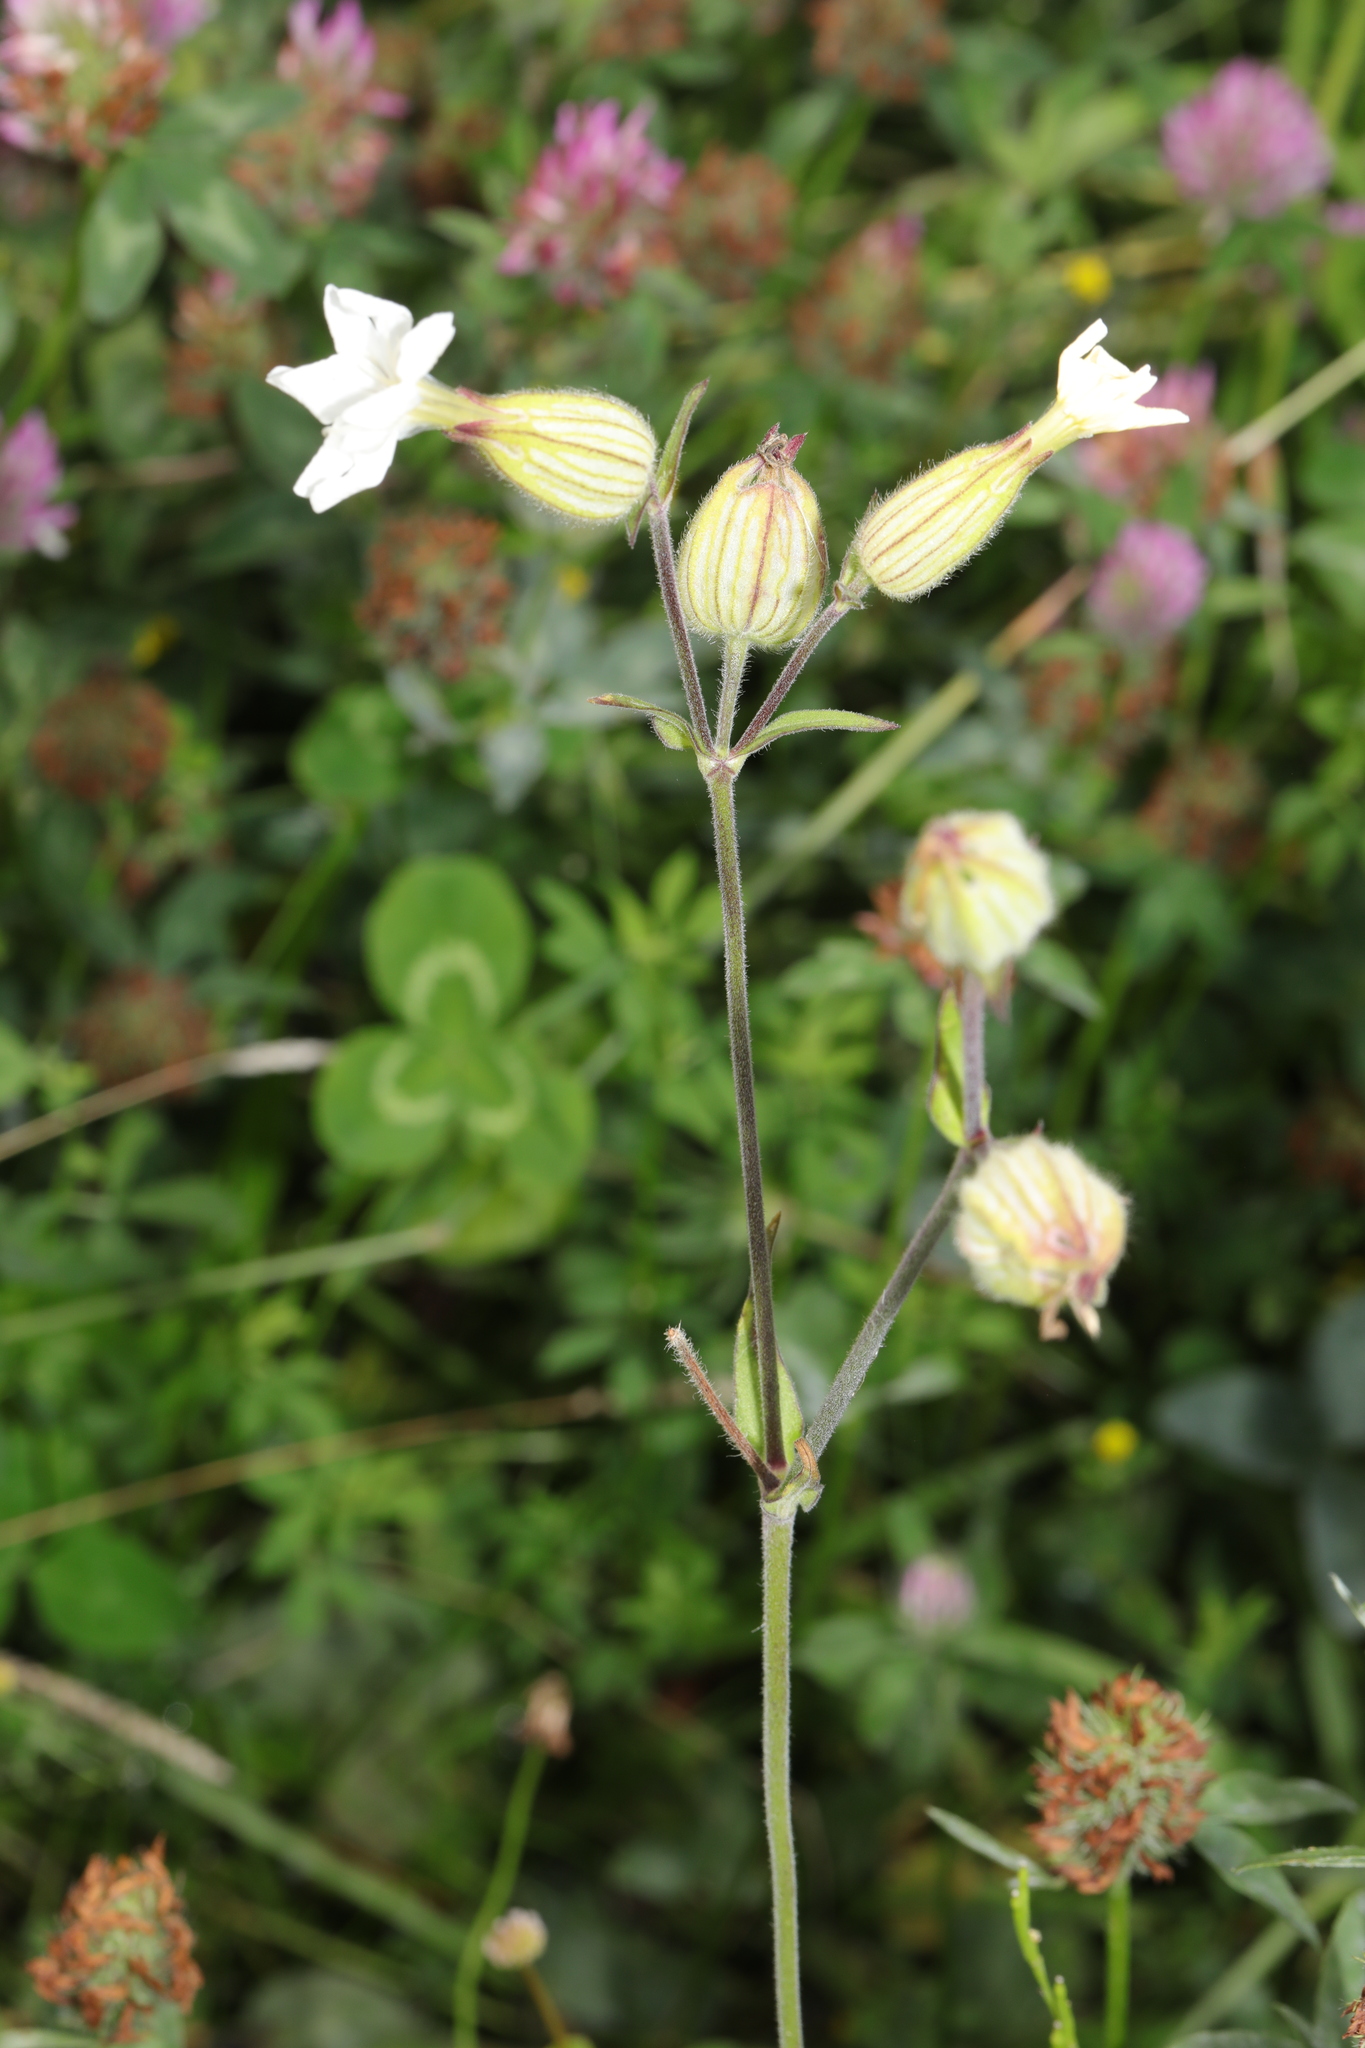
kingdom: Plantae
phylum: Tracheophyta
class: Magnoliopsida
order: Caryophyllales
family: Caryophyllaceae
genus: Silene
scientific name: Silene latifolia
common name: White campion
